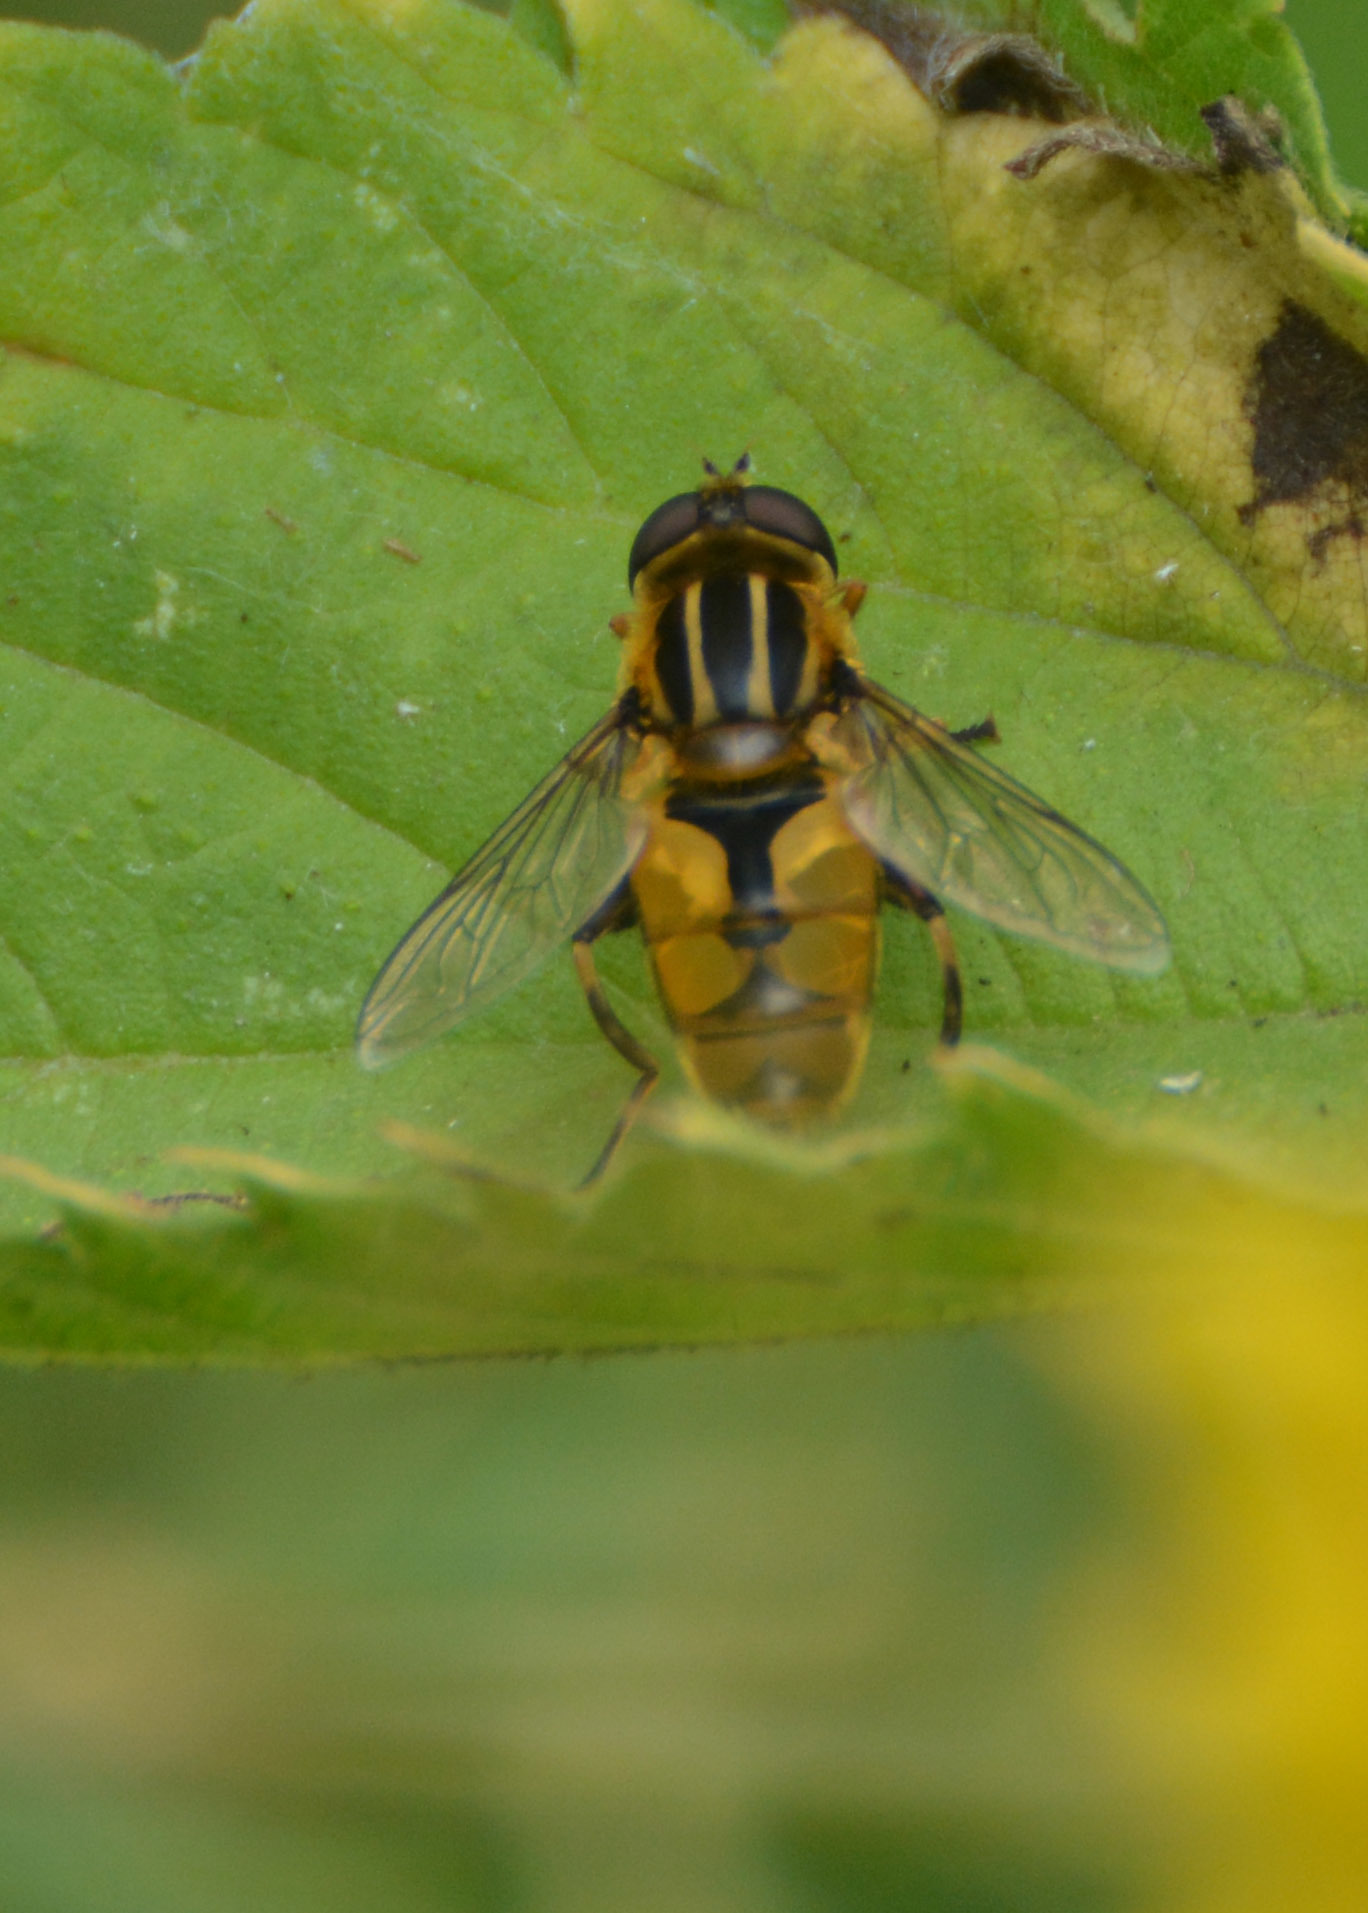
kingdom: Animalia
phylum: Arthropoda
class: Insecta
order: Diptera
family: Syrphidae
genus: Helophilus
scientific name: Helophilus hybridus
